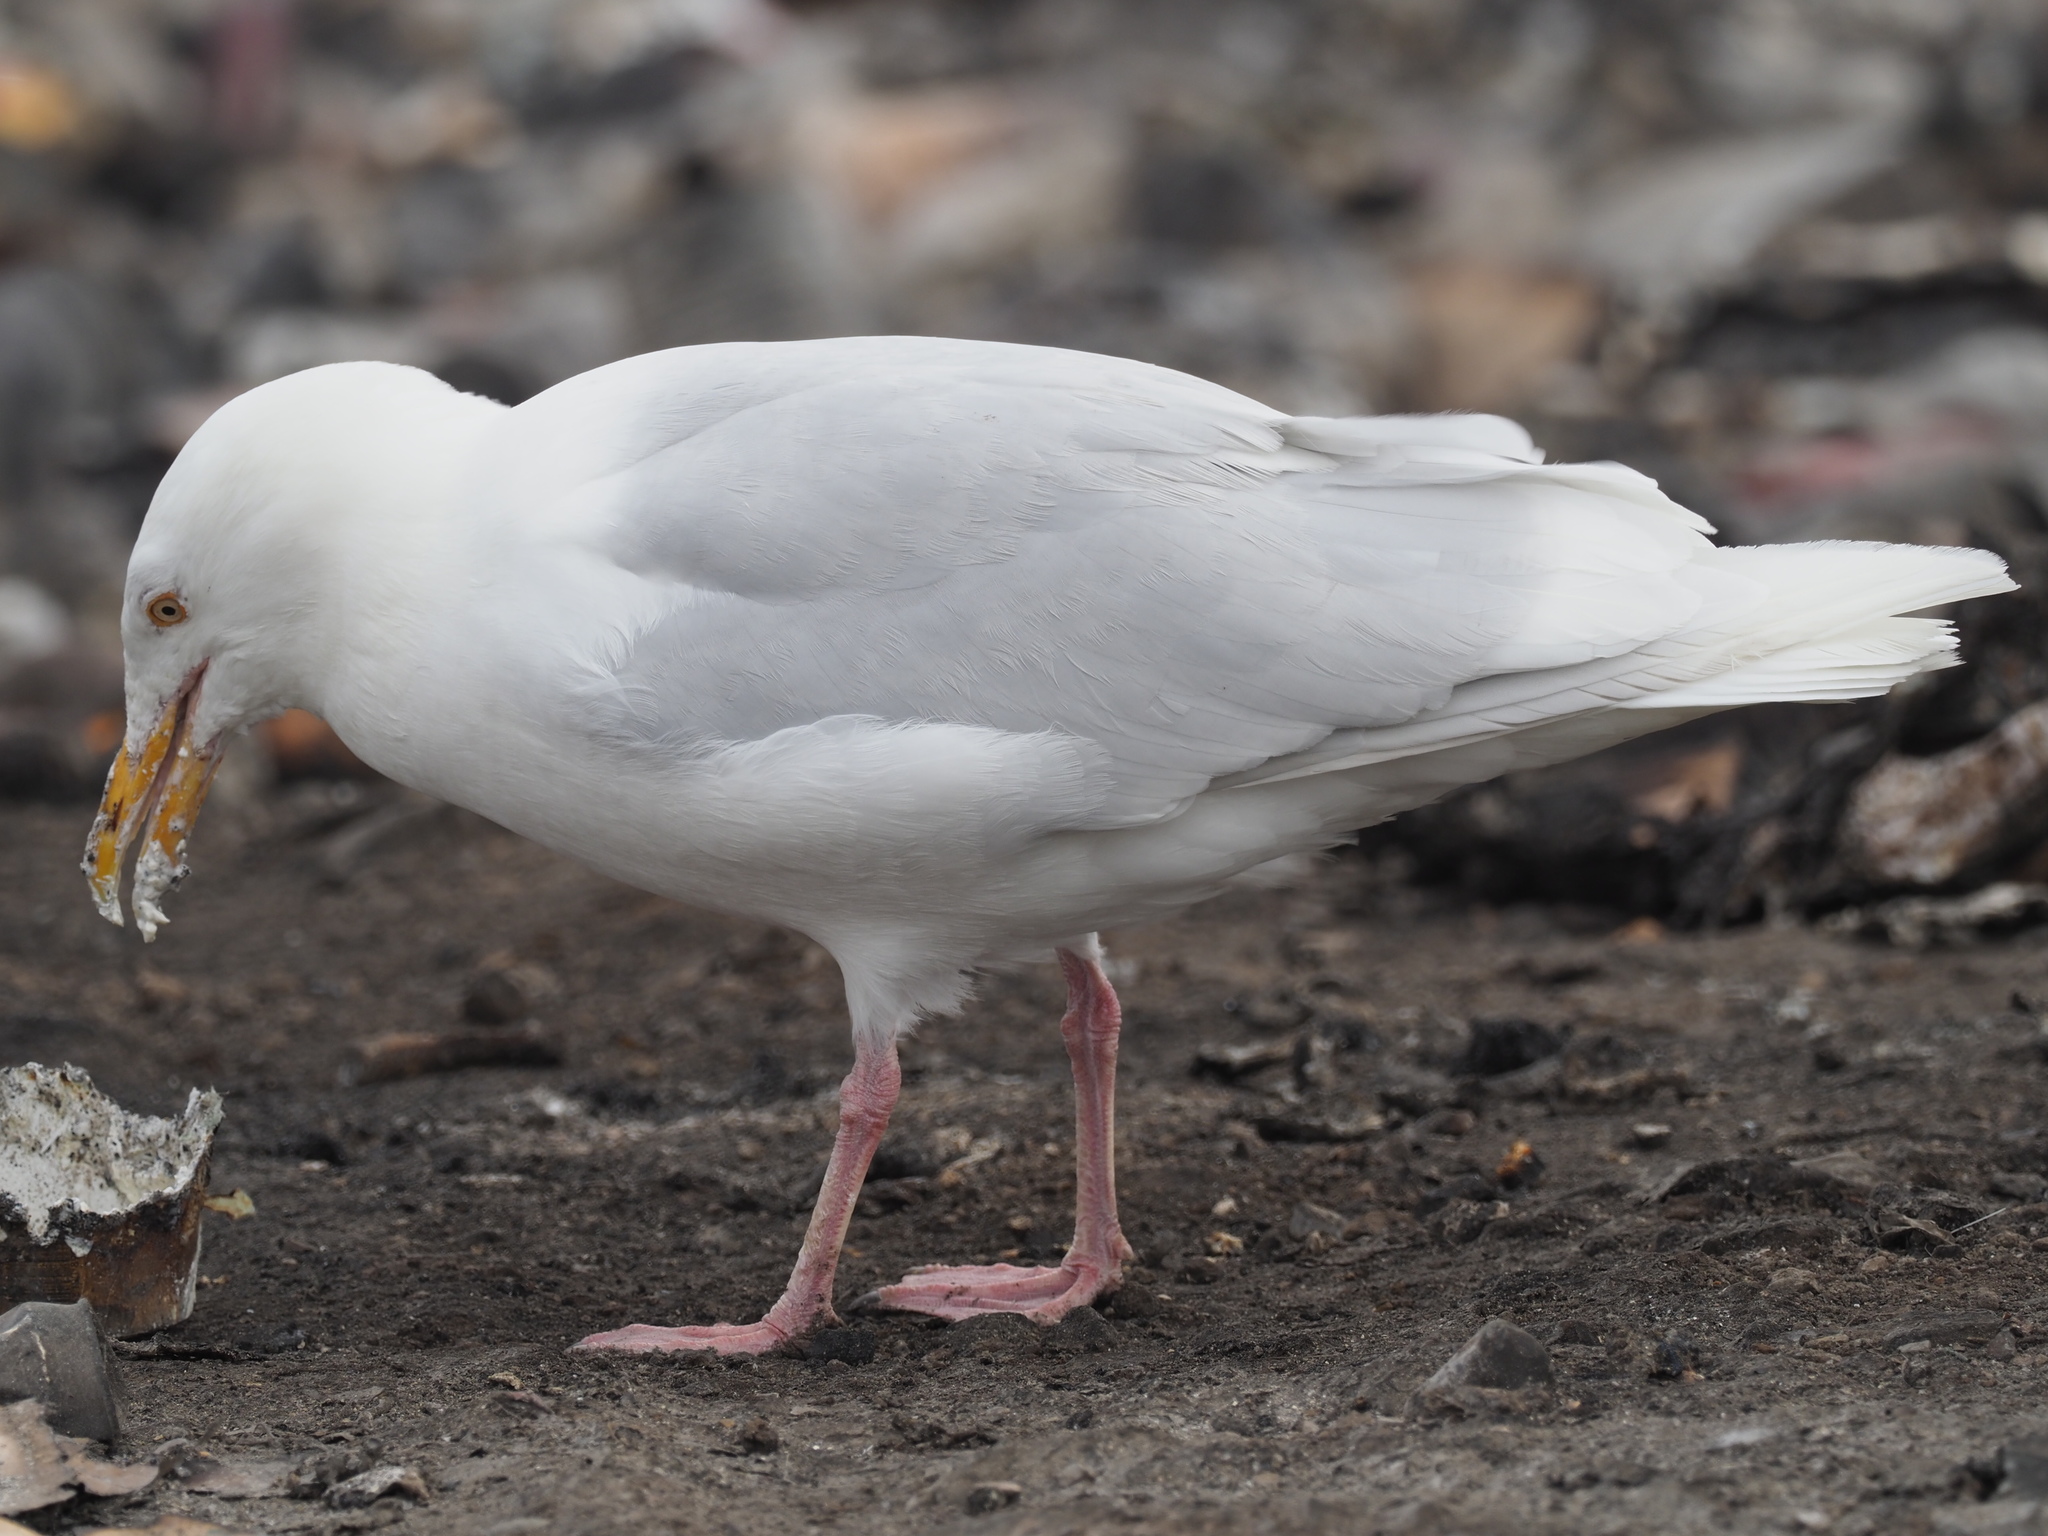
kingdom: Animalia
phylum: Chordata
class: Aves
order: Charadriiformes
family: Laridae
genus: Larus
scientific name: Larus hyperboreus
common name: Glaucous gull
